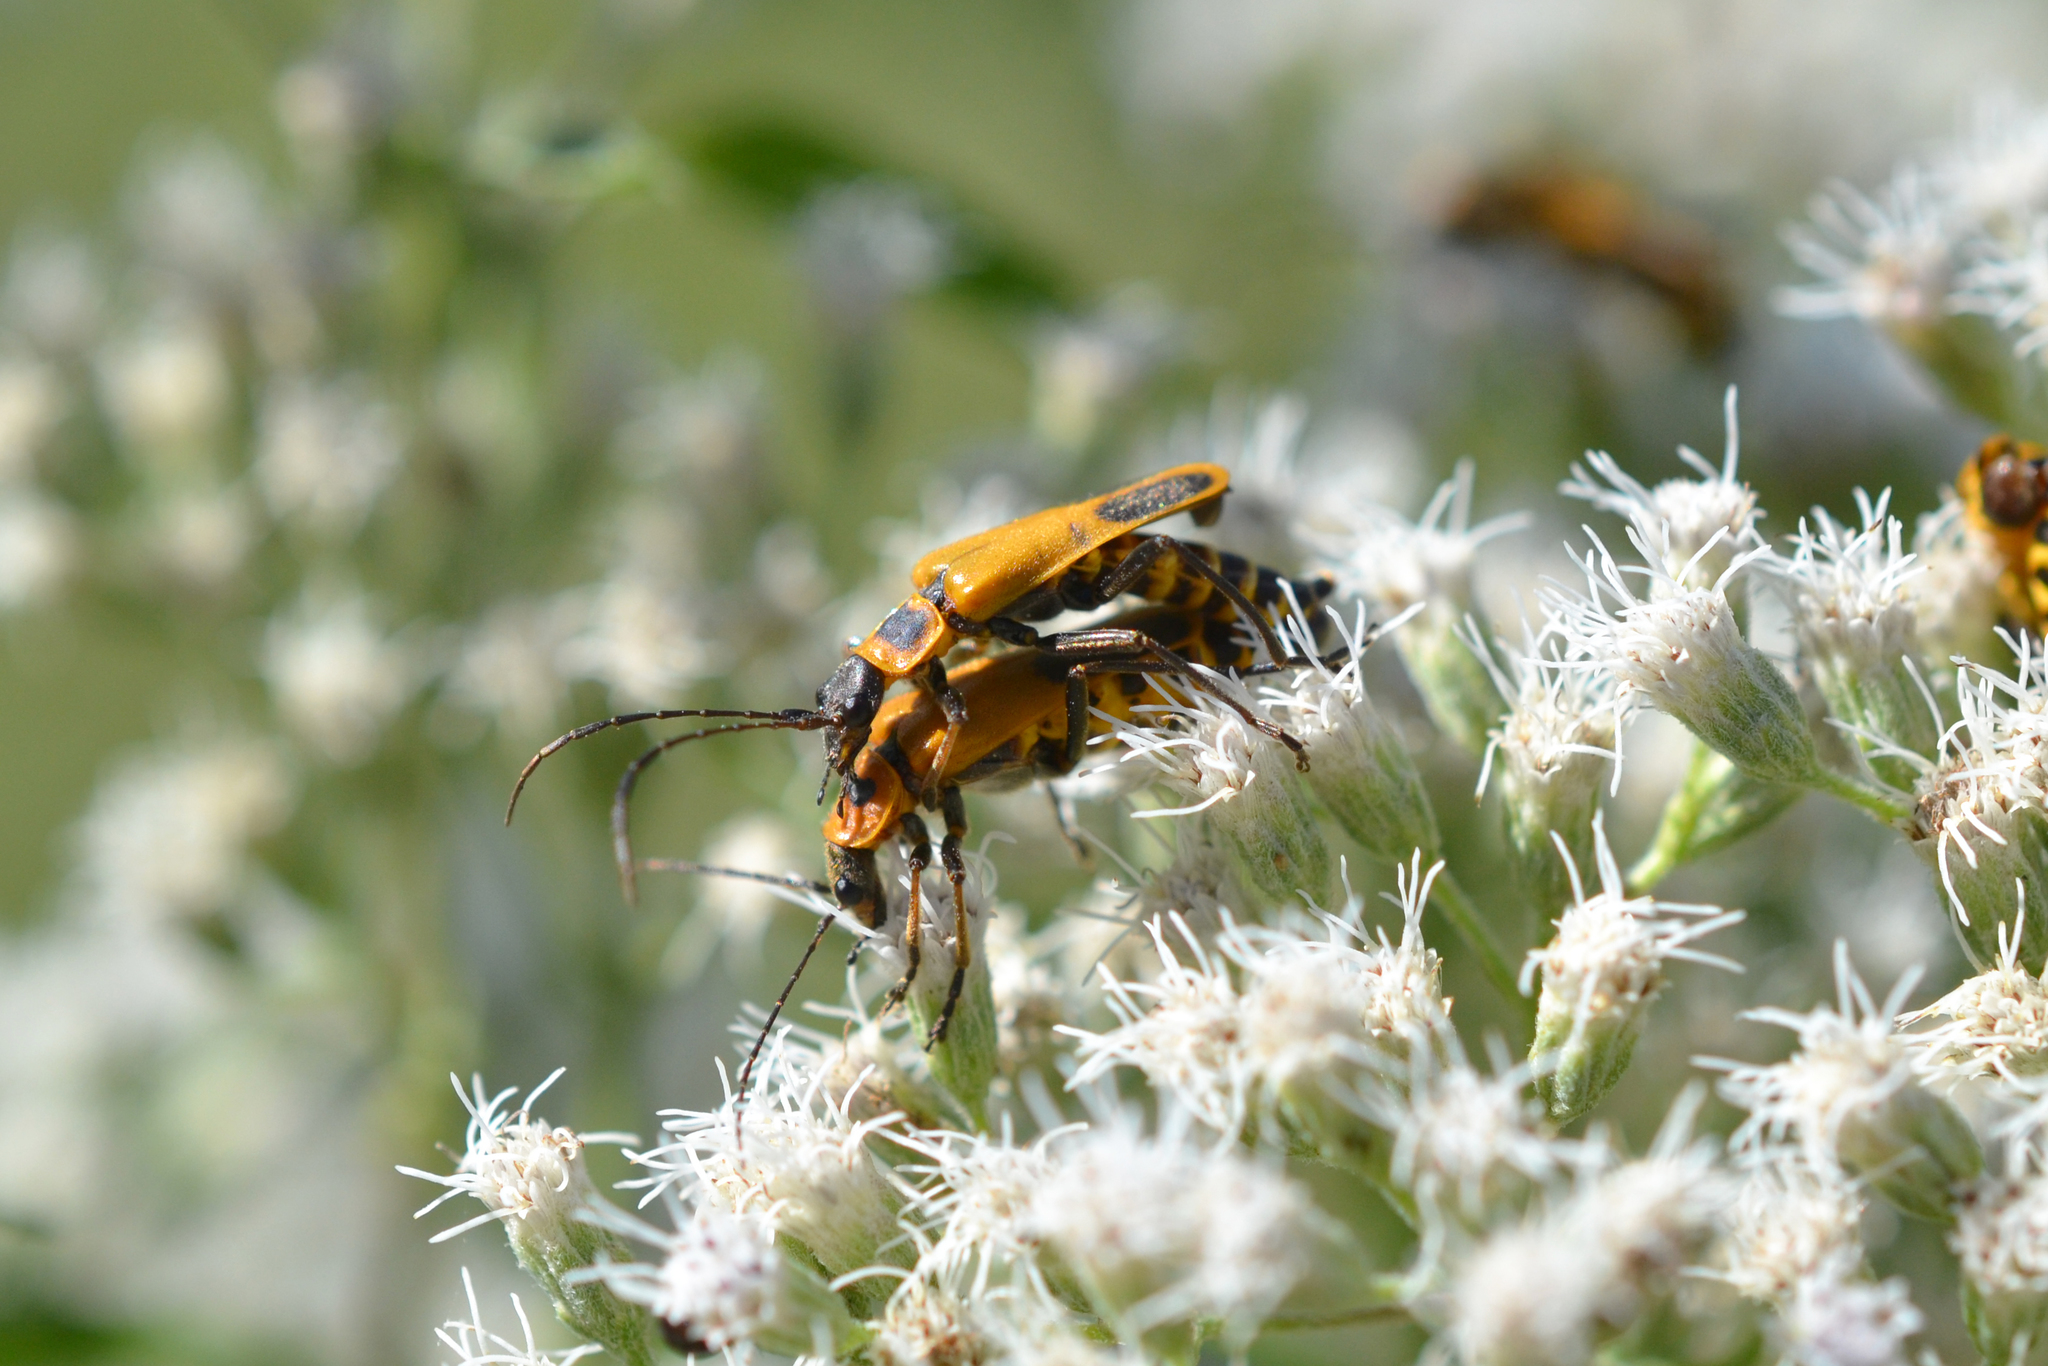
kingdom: Animalia
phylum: Arthropoda
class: Insecta
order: Coleoptera
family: Cantharidae
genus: Chauliognathus
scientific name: Chauliognathus pensylvanicus
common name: Goldenrod soldier beetle
